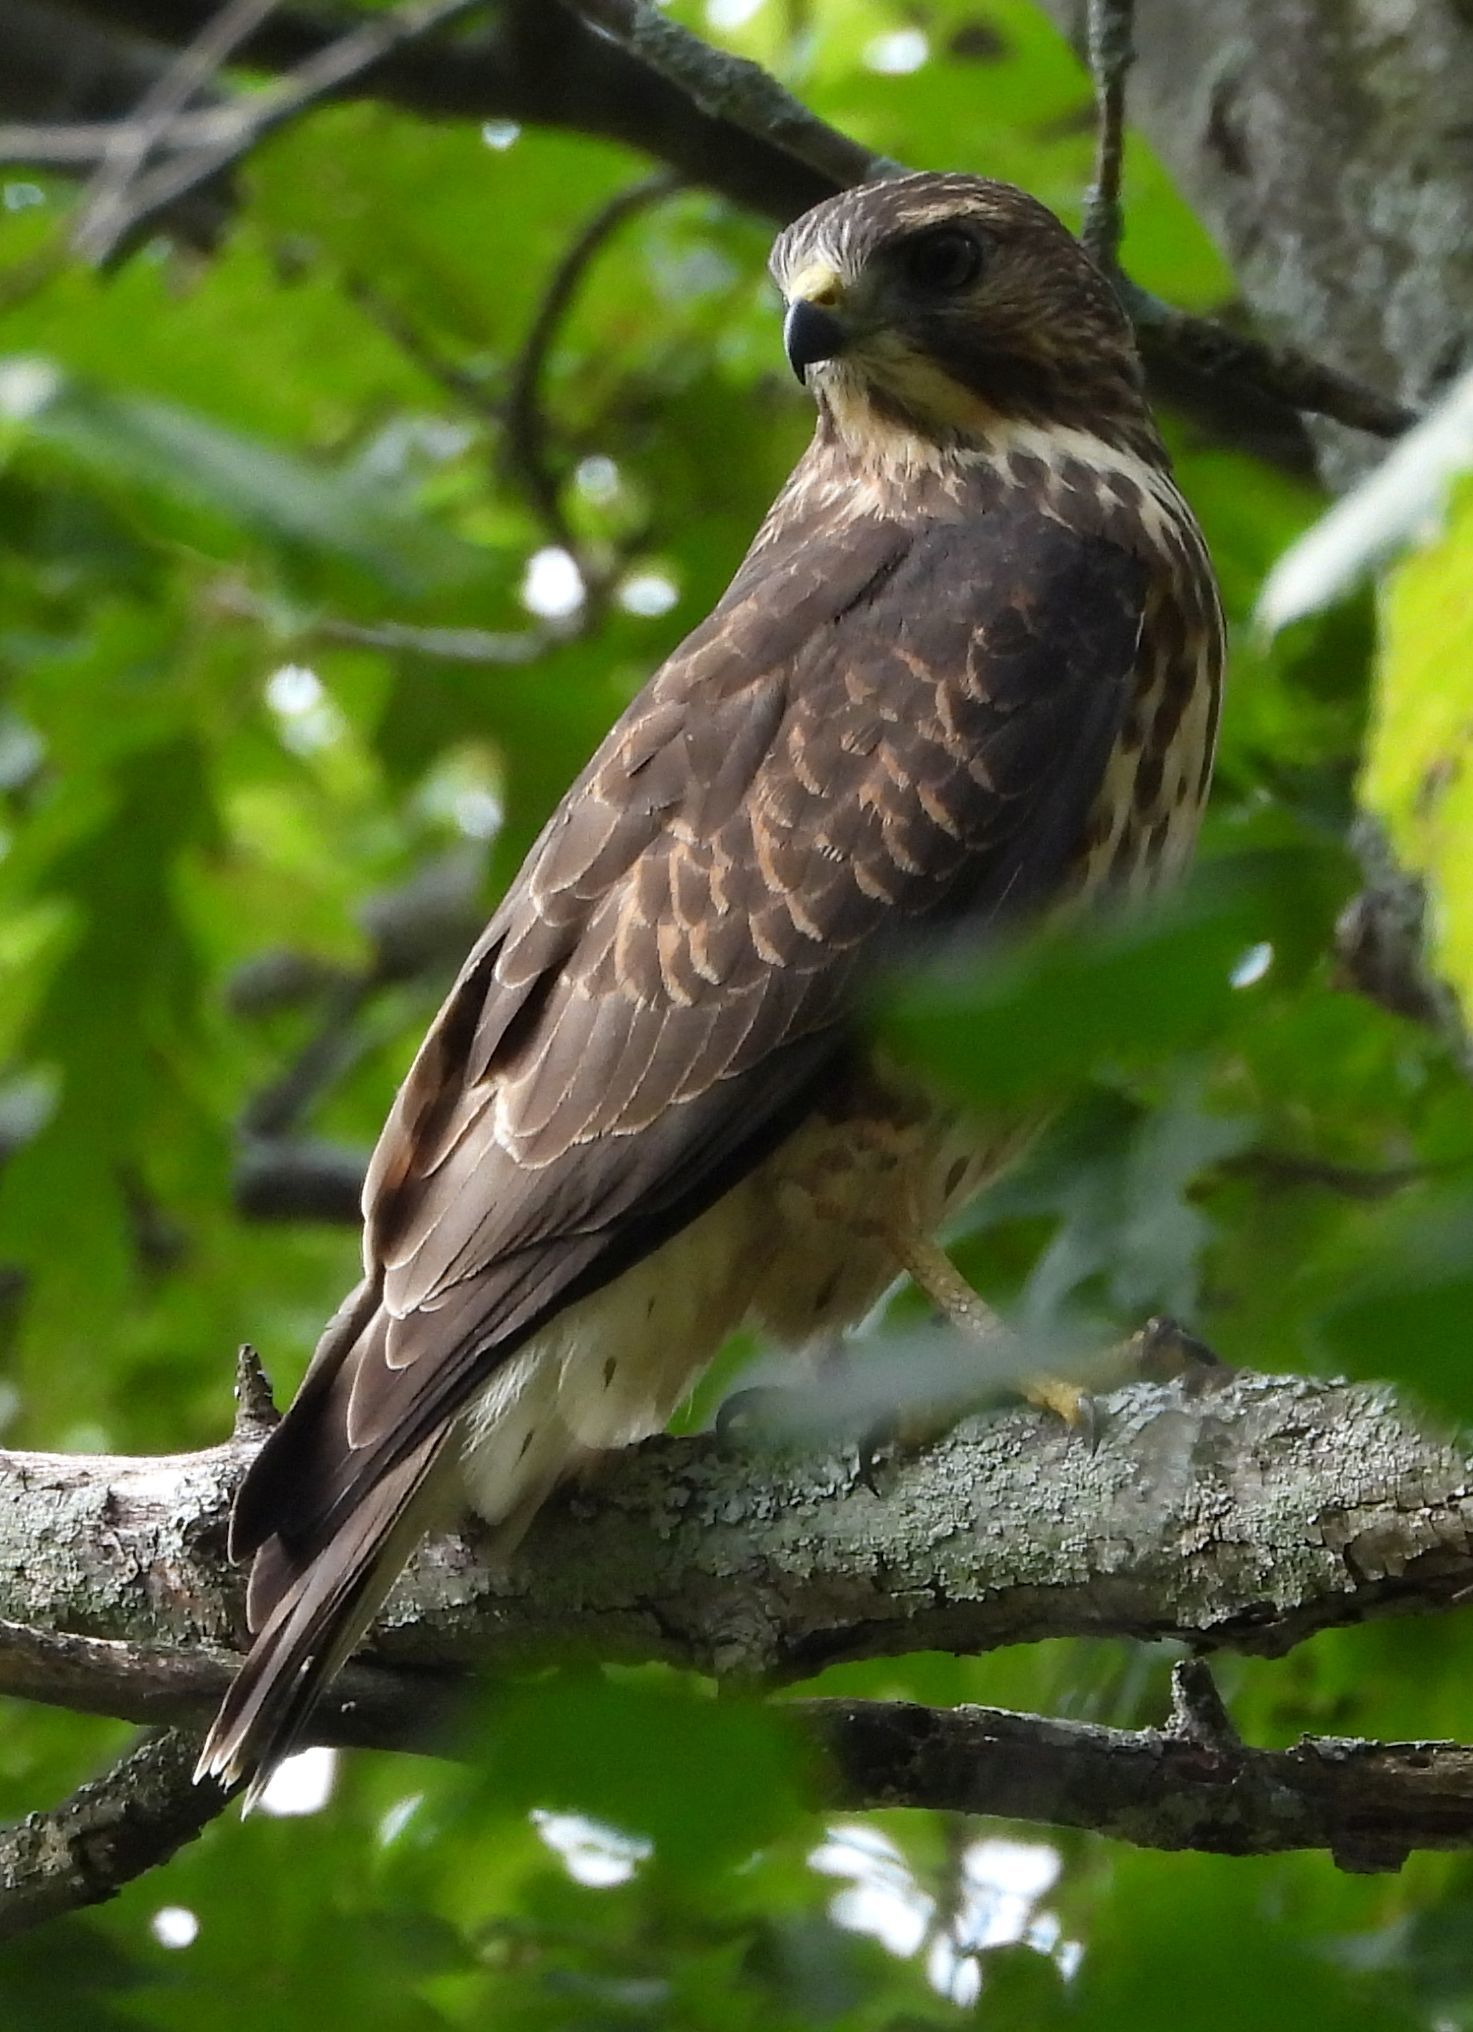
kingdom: Animalia
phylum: Chordata
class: Aves
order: Accipitriformes
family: Accipitridae
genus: Buteo
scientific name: Buteo platypterus
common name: Broad-winged hawk
